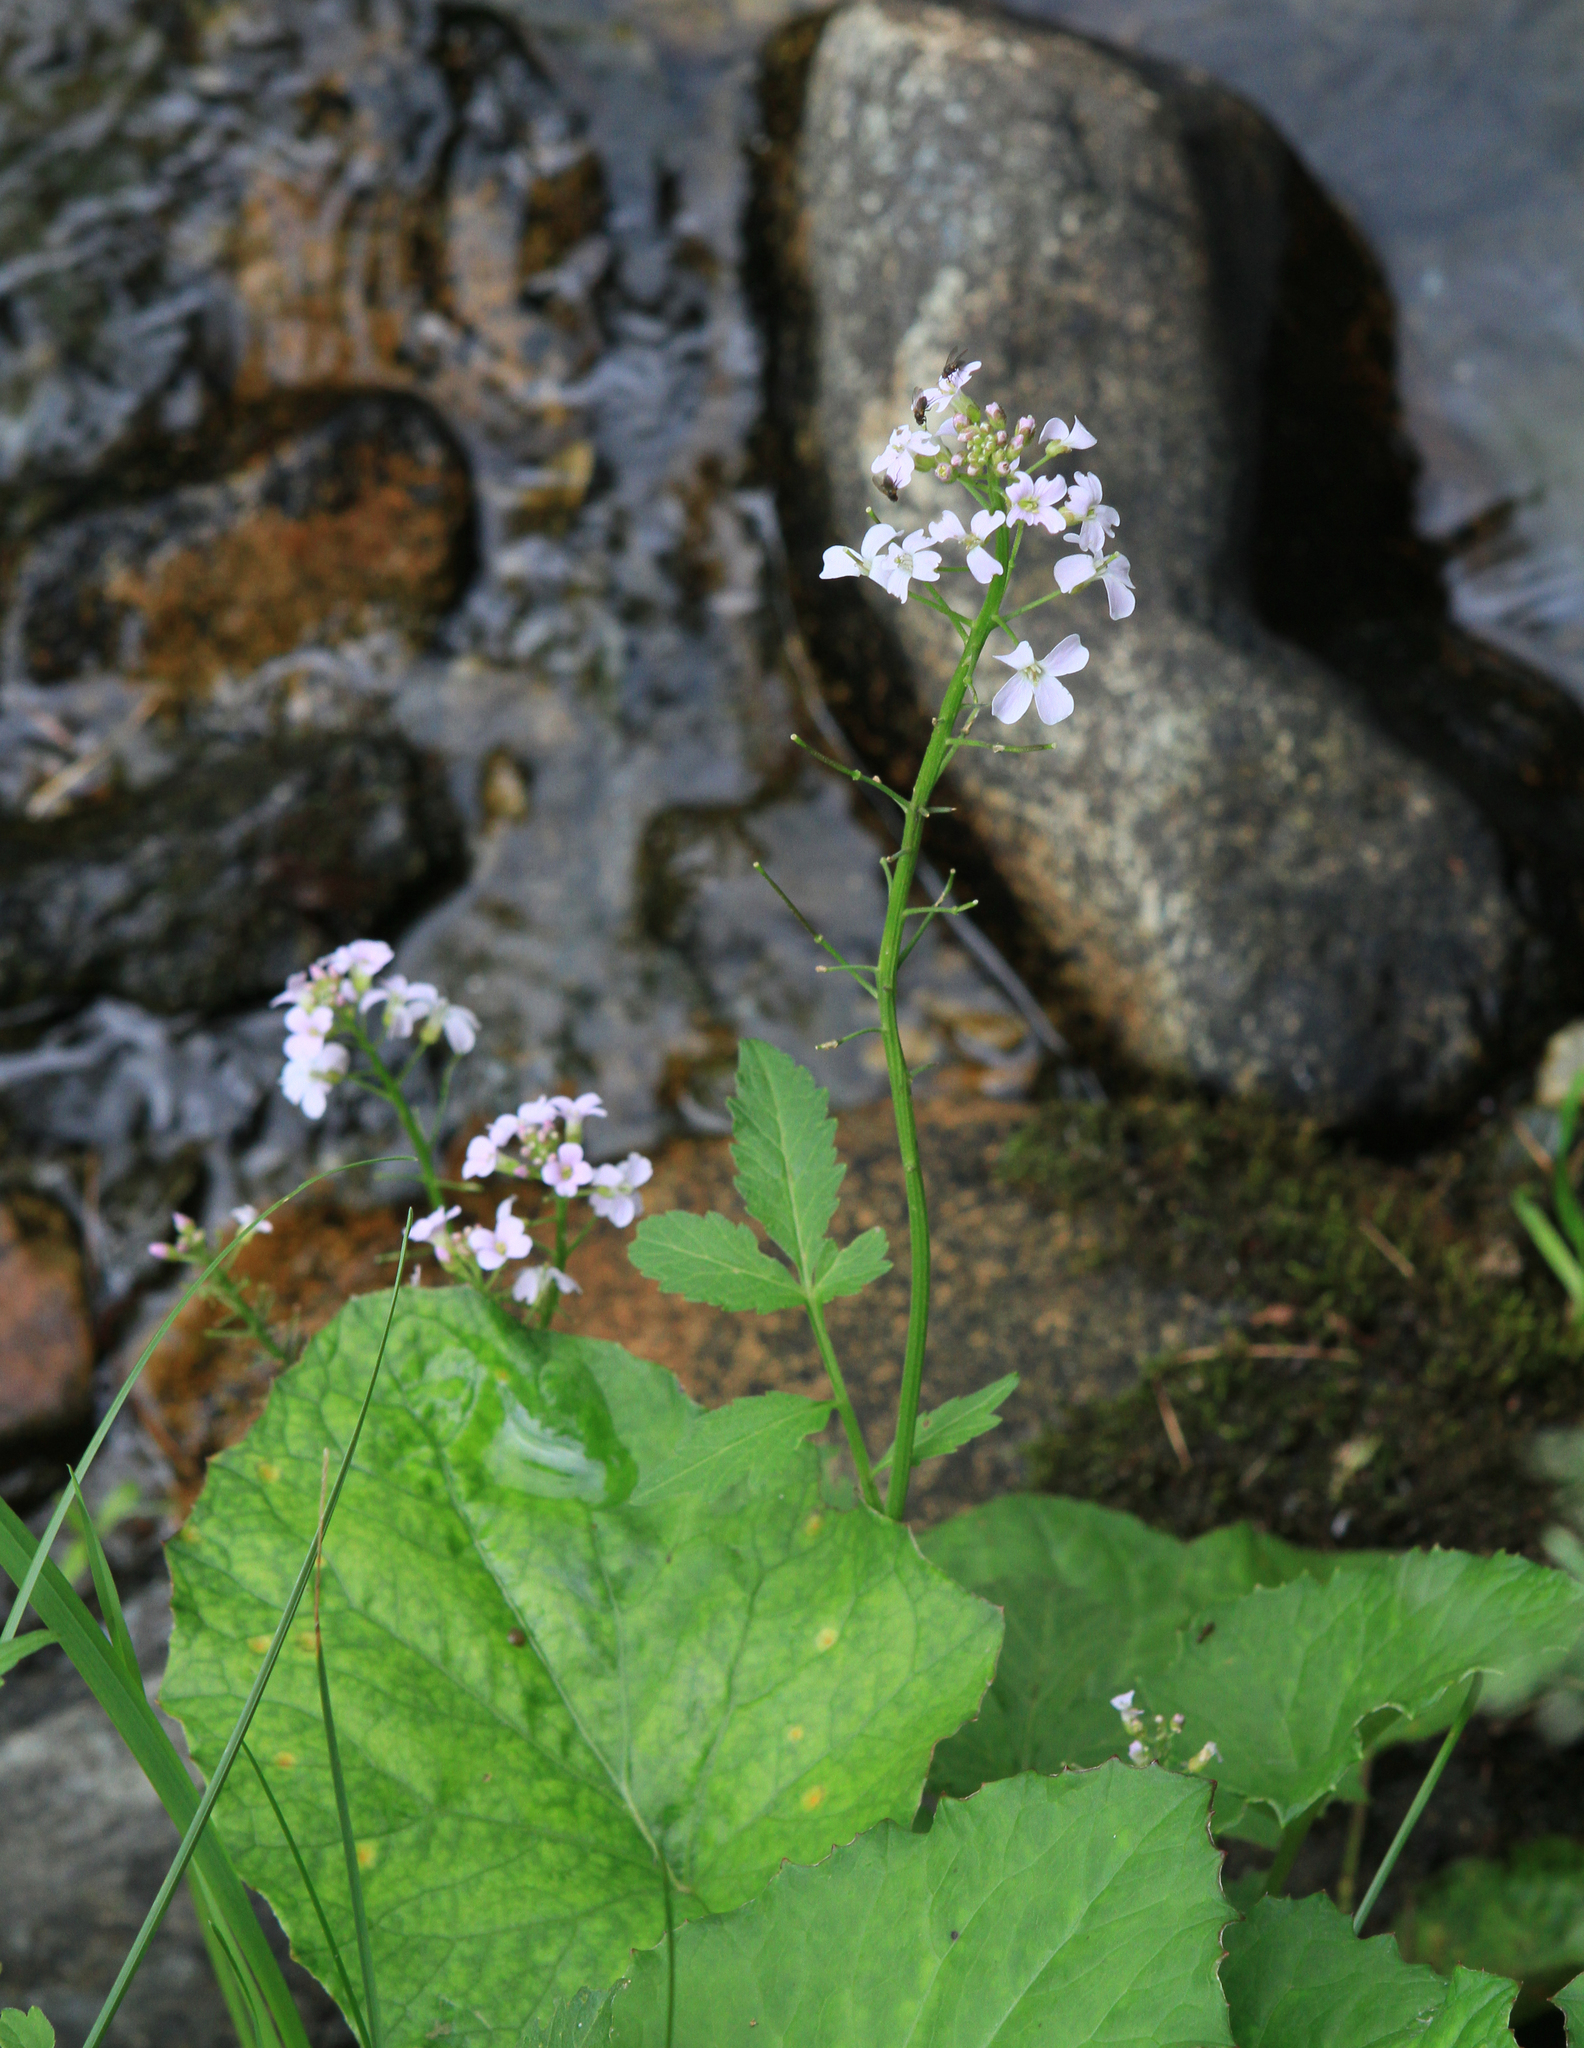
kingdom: Plantae
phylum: Tracheophyta
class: Magnoliopsida
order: Brassicales
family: Brassicaceae
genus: Cardamine
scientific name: Cardamine macrophylla
